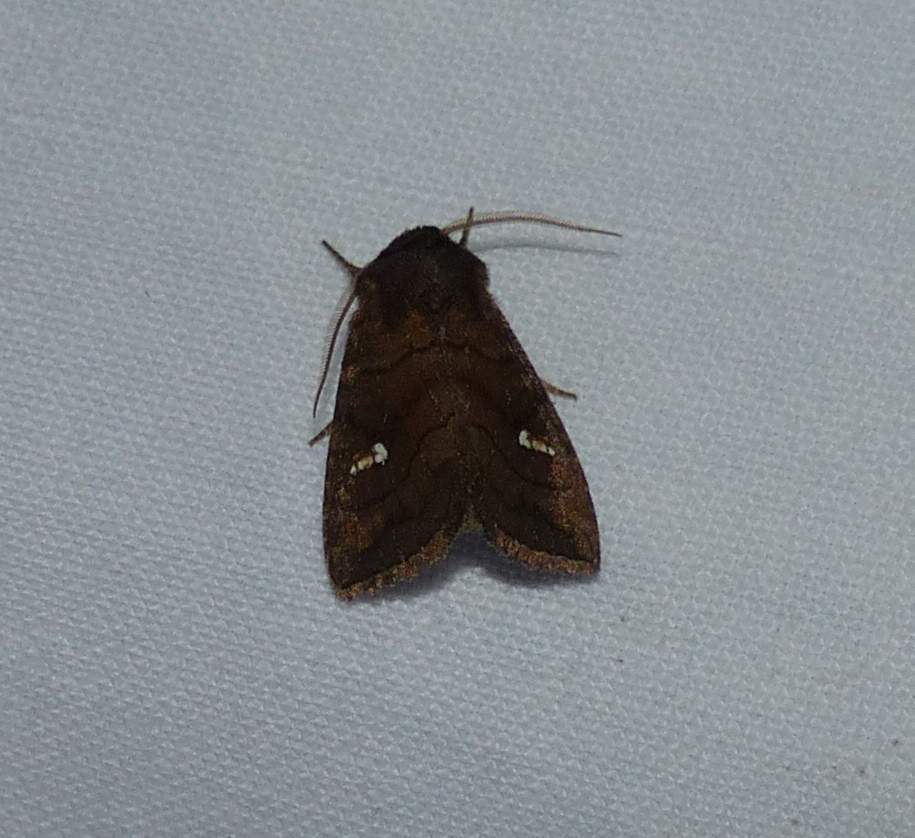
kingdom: Animalia
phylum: Arthropoda
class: Insecta
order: Lepidoptera
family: Noctuidae
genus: Tricholita
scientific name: Tricholita signata
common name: Signate quaker
